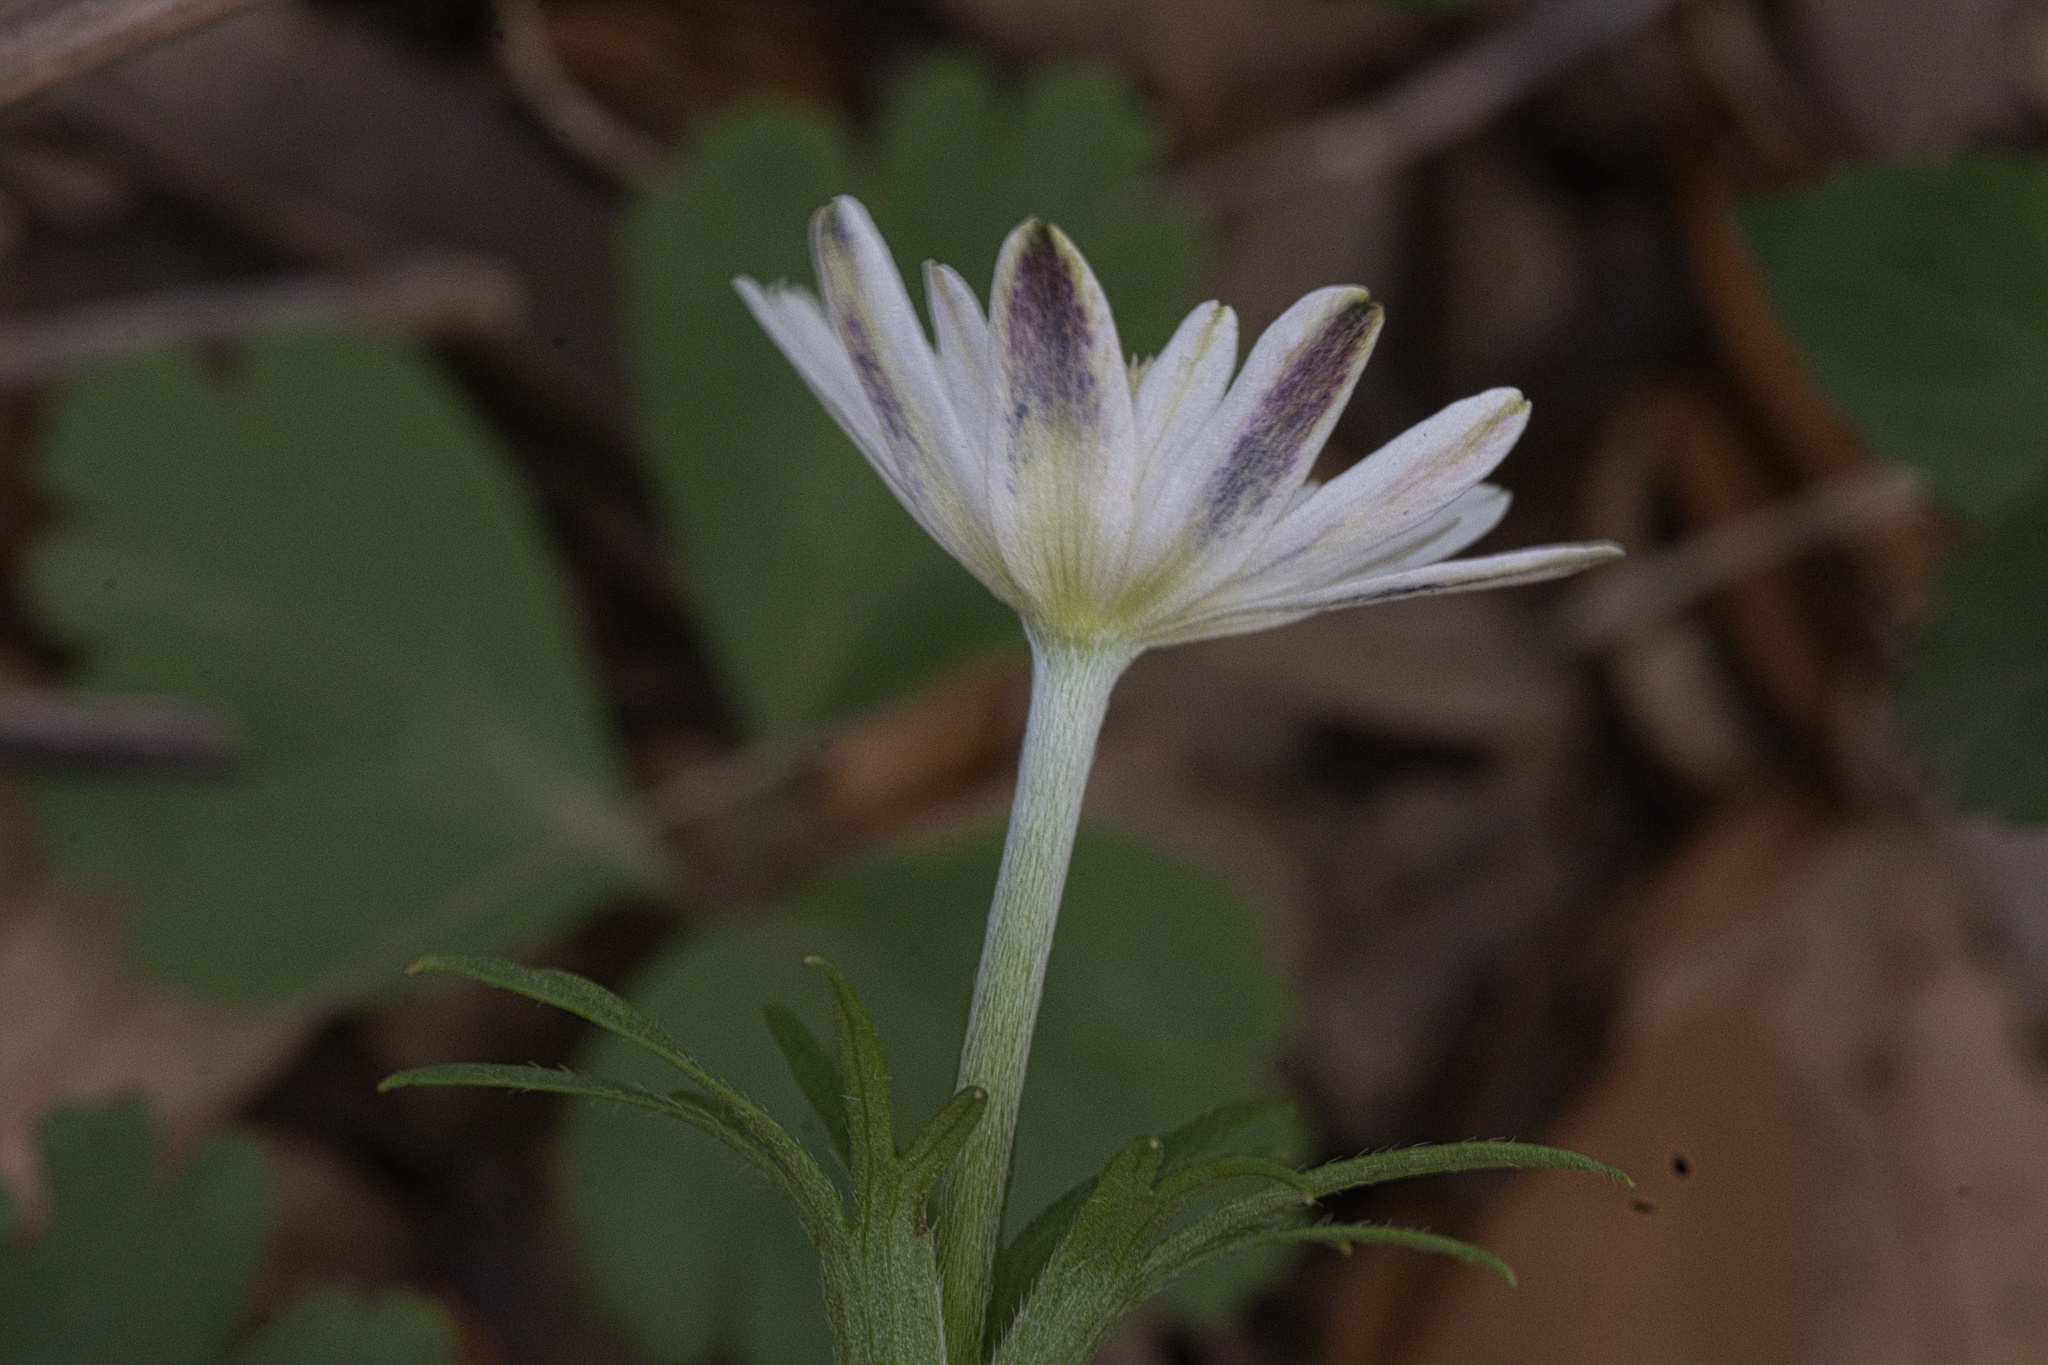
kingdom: Plantae
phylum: Tracheophyta
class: Magnoliopsida
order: Ranunculales
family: Ranunculaceae
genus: Anemone
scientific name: Anemone berlandieri
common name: Ten-petal anemone
